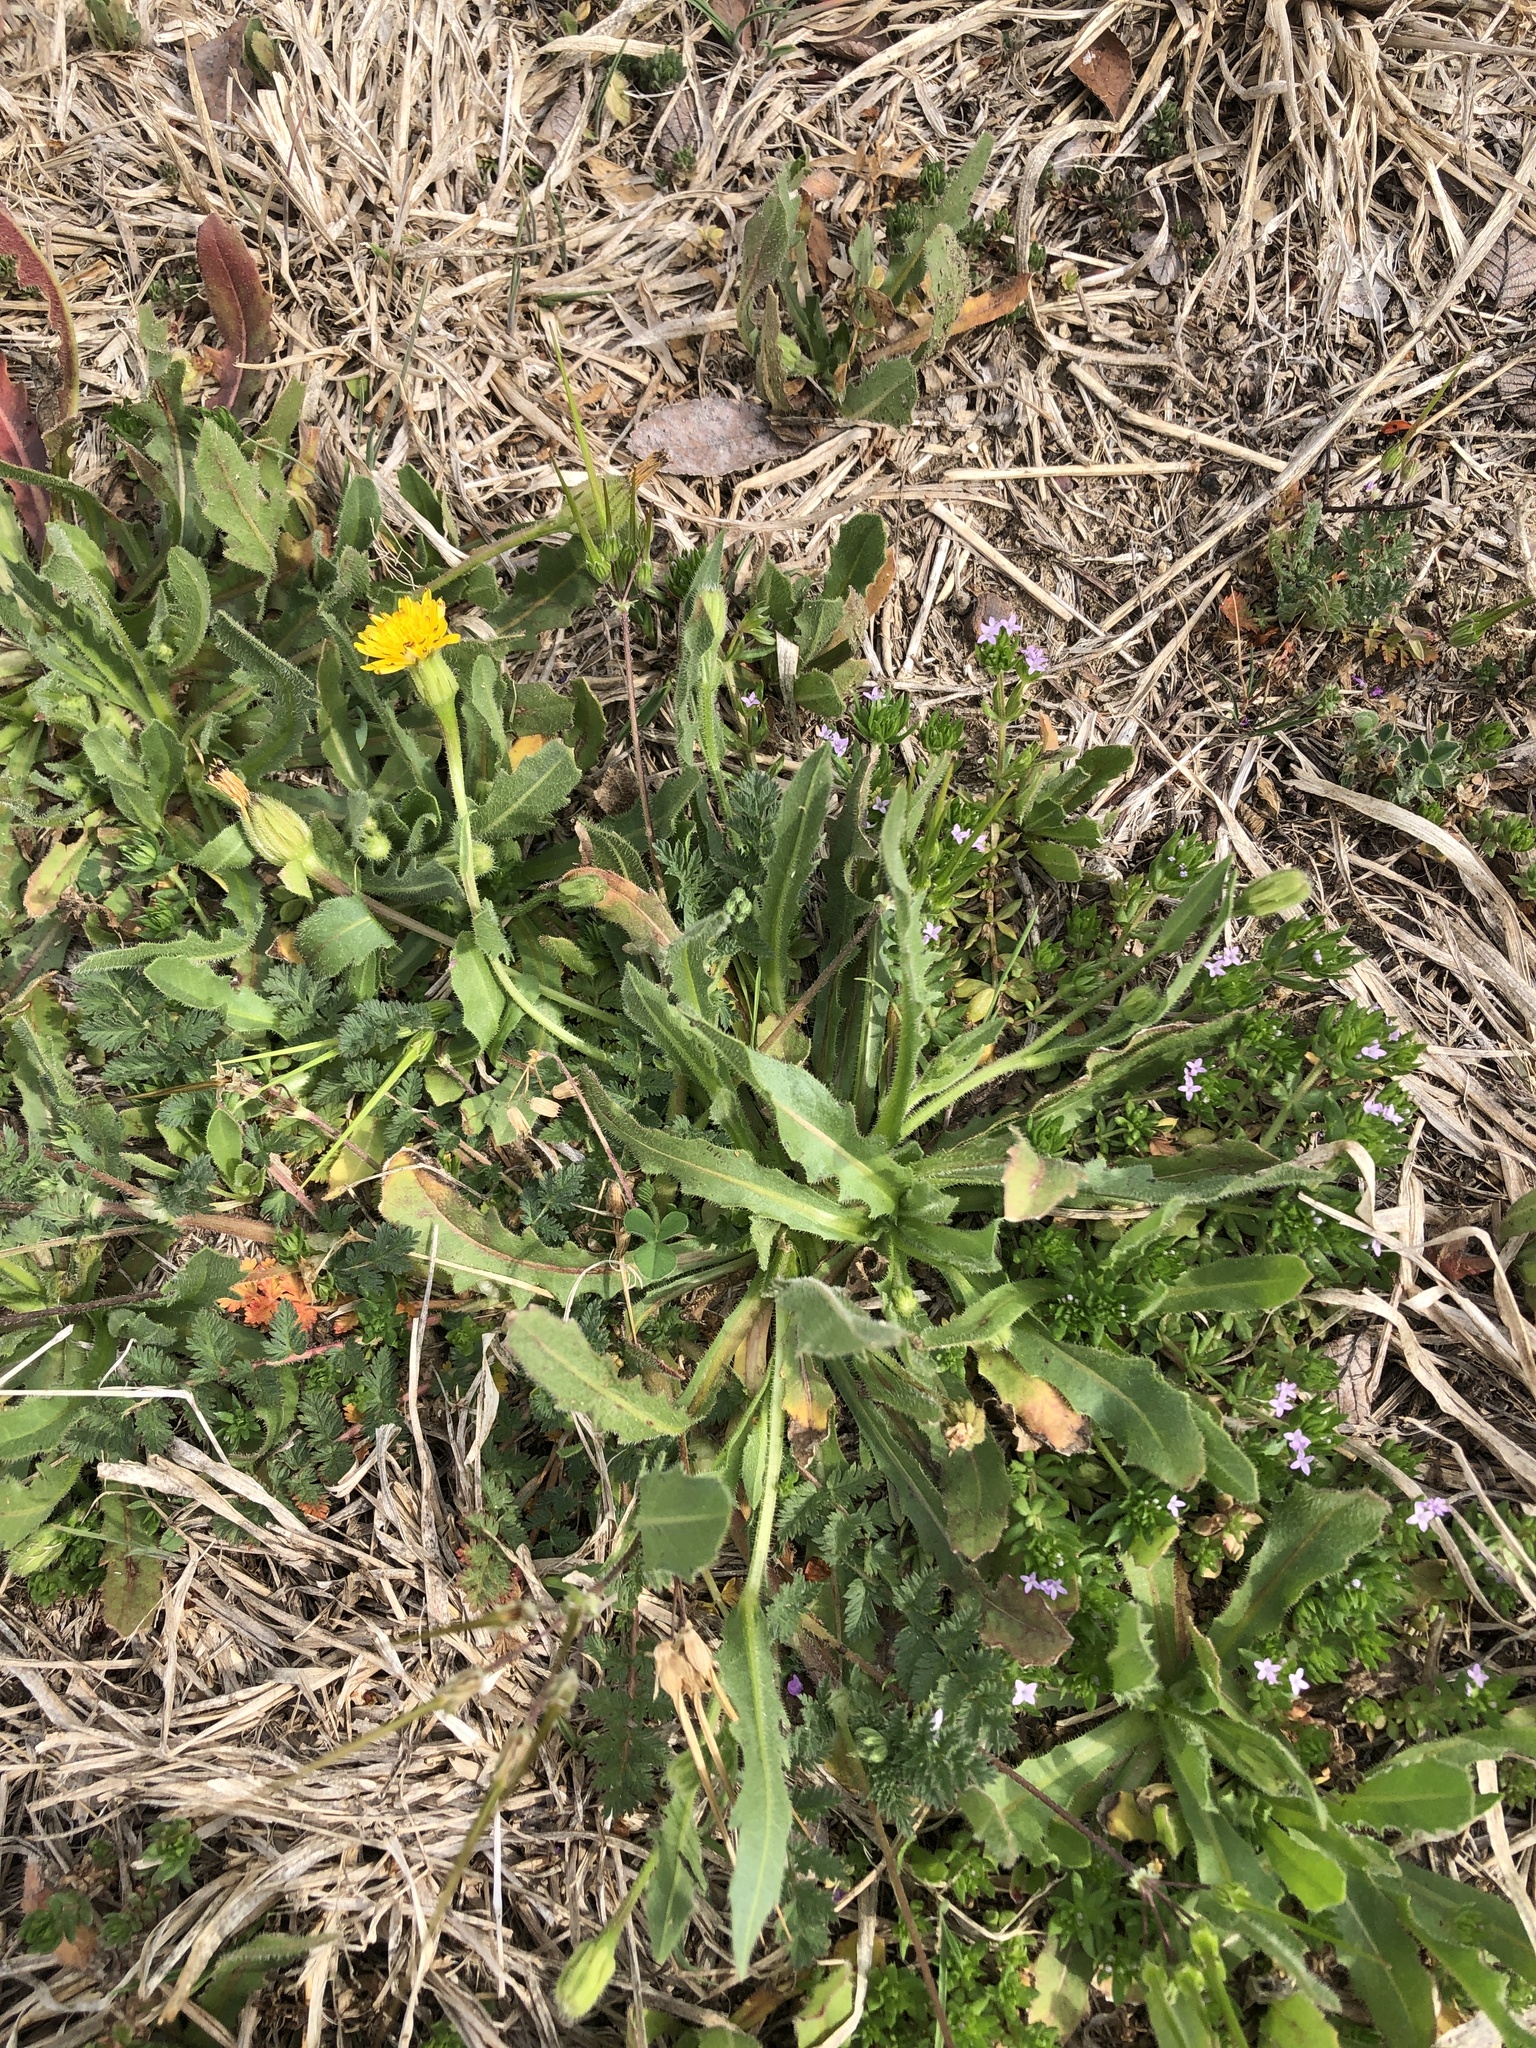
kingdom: Plantae
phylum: Tracheophyta
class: Magnoliopsida
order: Asterales
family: Asteraceae
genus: Hedypnois
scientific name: Hedypnois rhagadioloides
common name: Cretan weed
